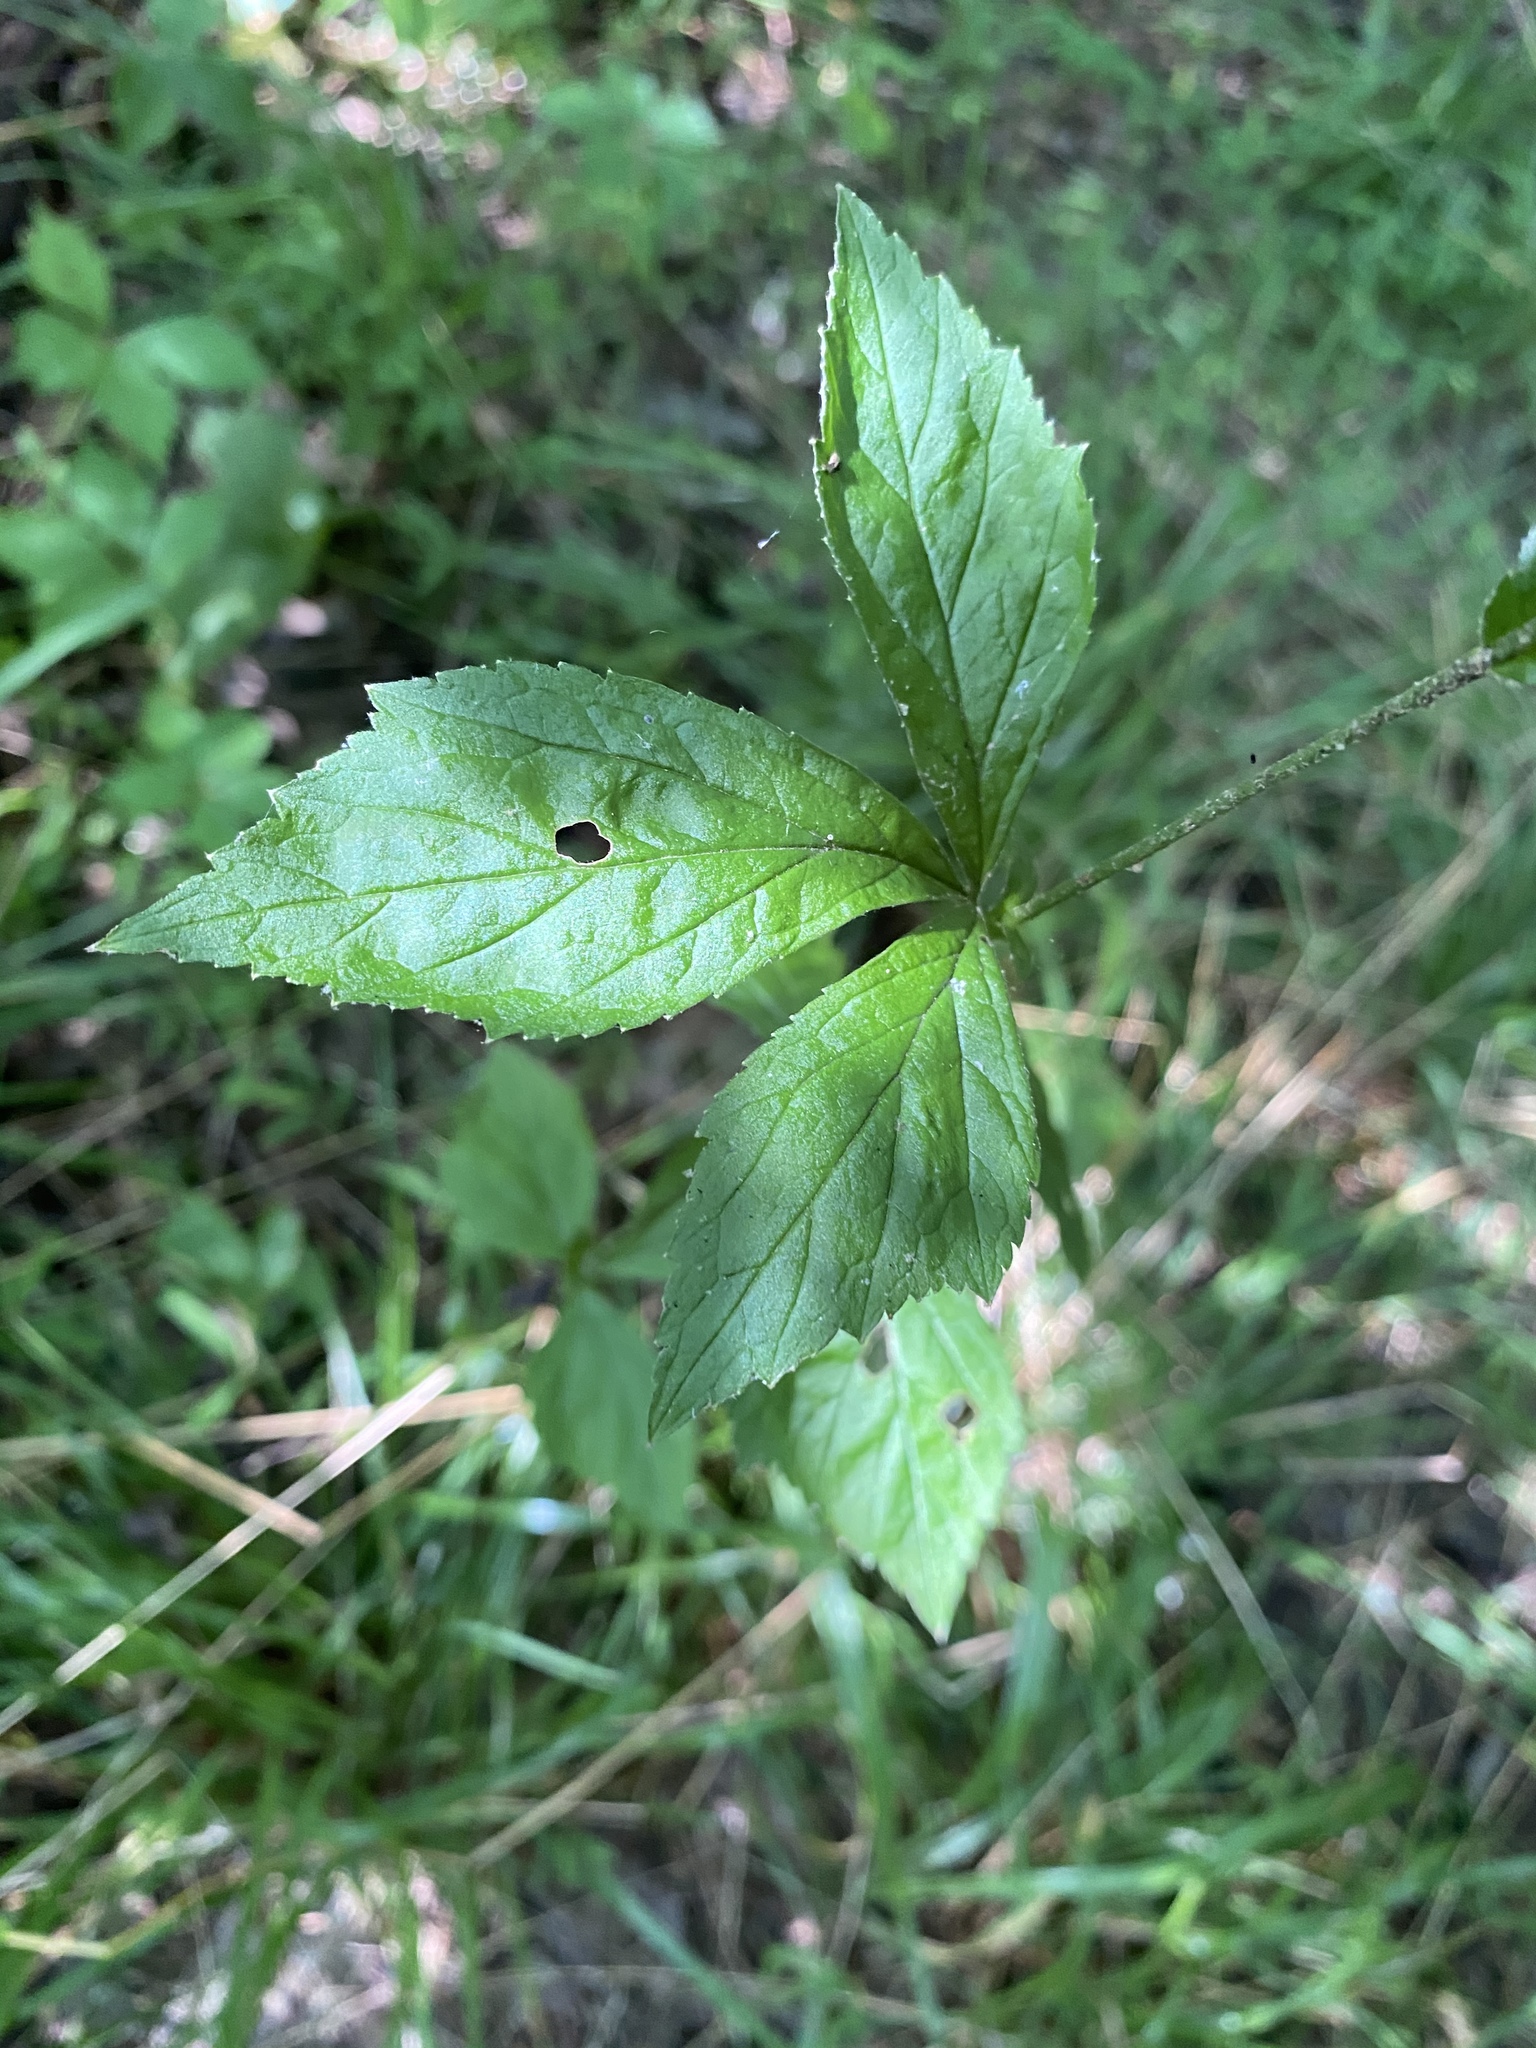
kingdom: Plantae
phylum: Tracheophyta
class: Magnoliopsida
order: Rosales
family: Rosaceae
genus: Geum
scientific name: Geum canadense
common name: White avens
